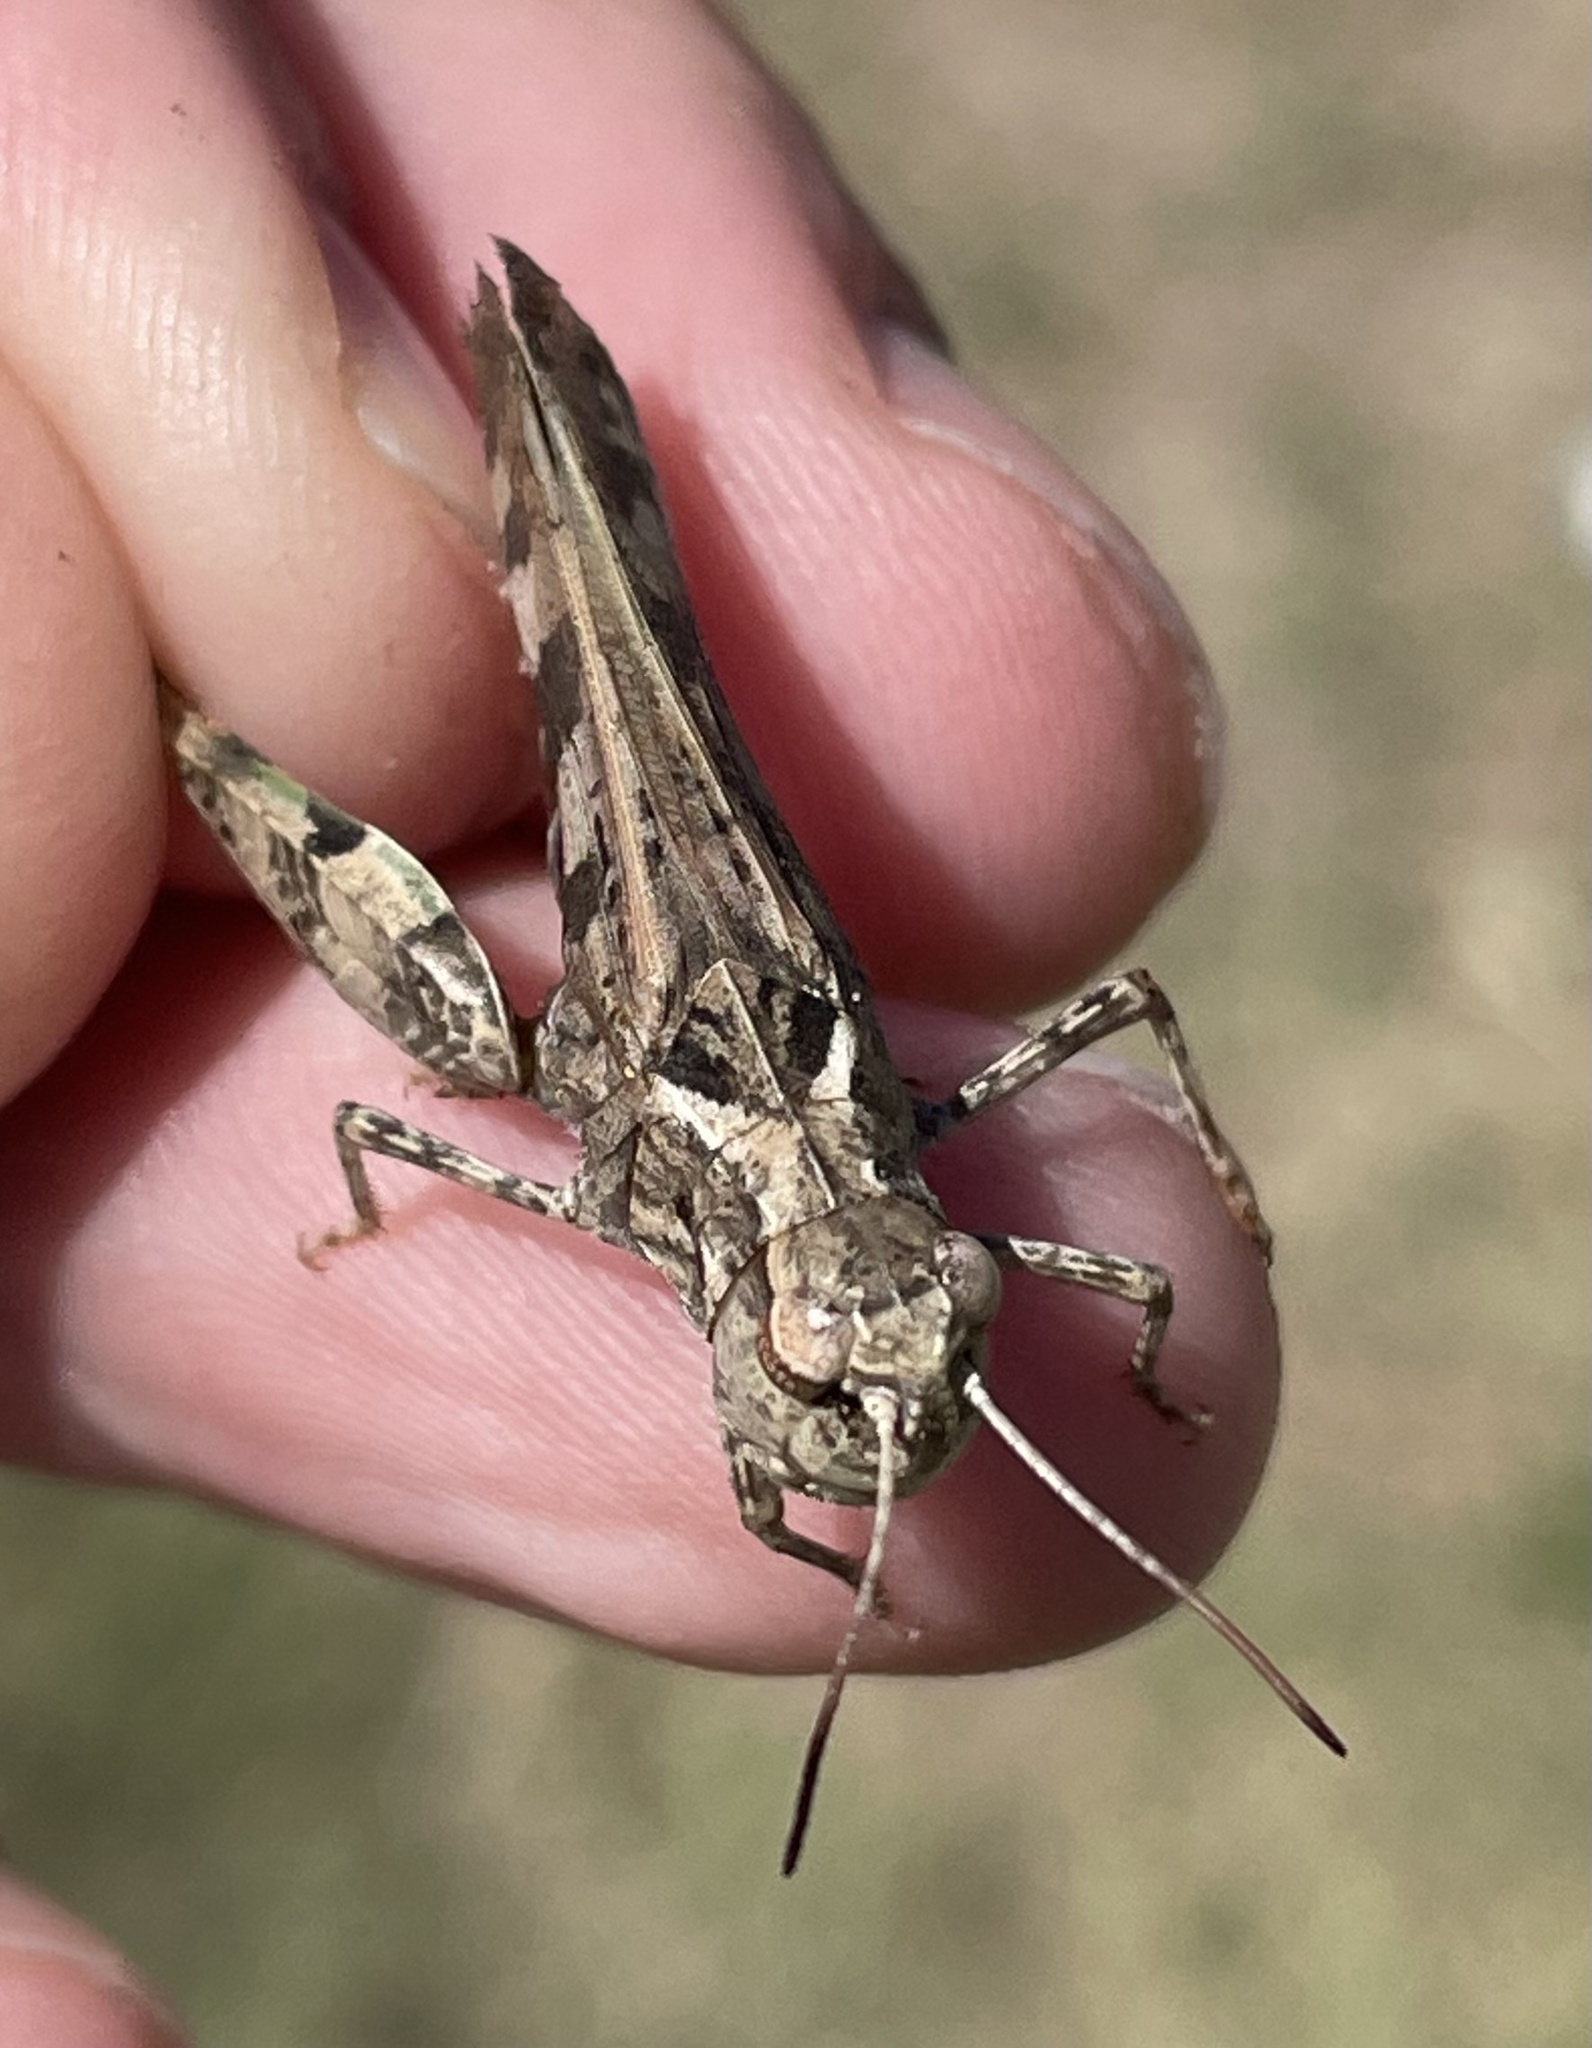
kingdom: Animalia
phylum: Arthropoda
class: Insecta
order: Orthoptera
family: Acrididae
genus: Encoptolophus
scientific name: Encoptolophus costalis
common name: Dusky grasshopper
